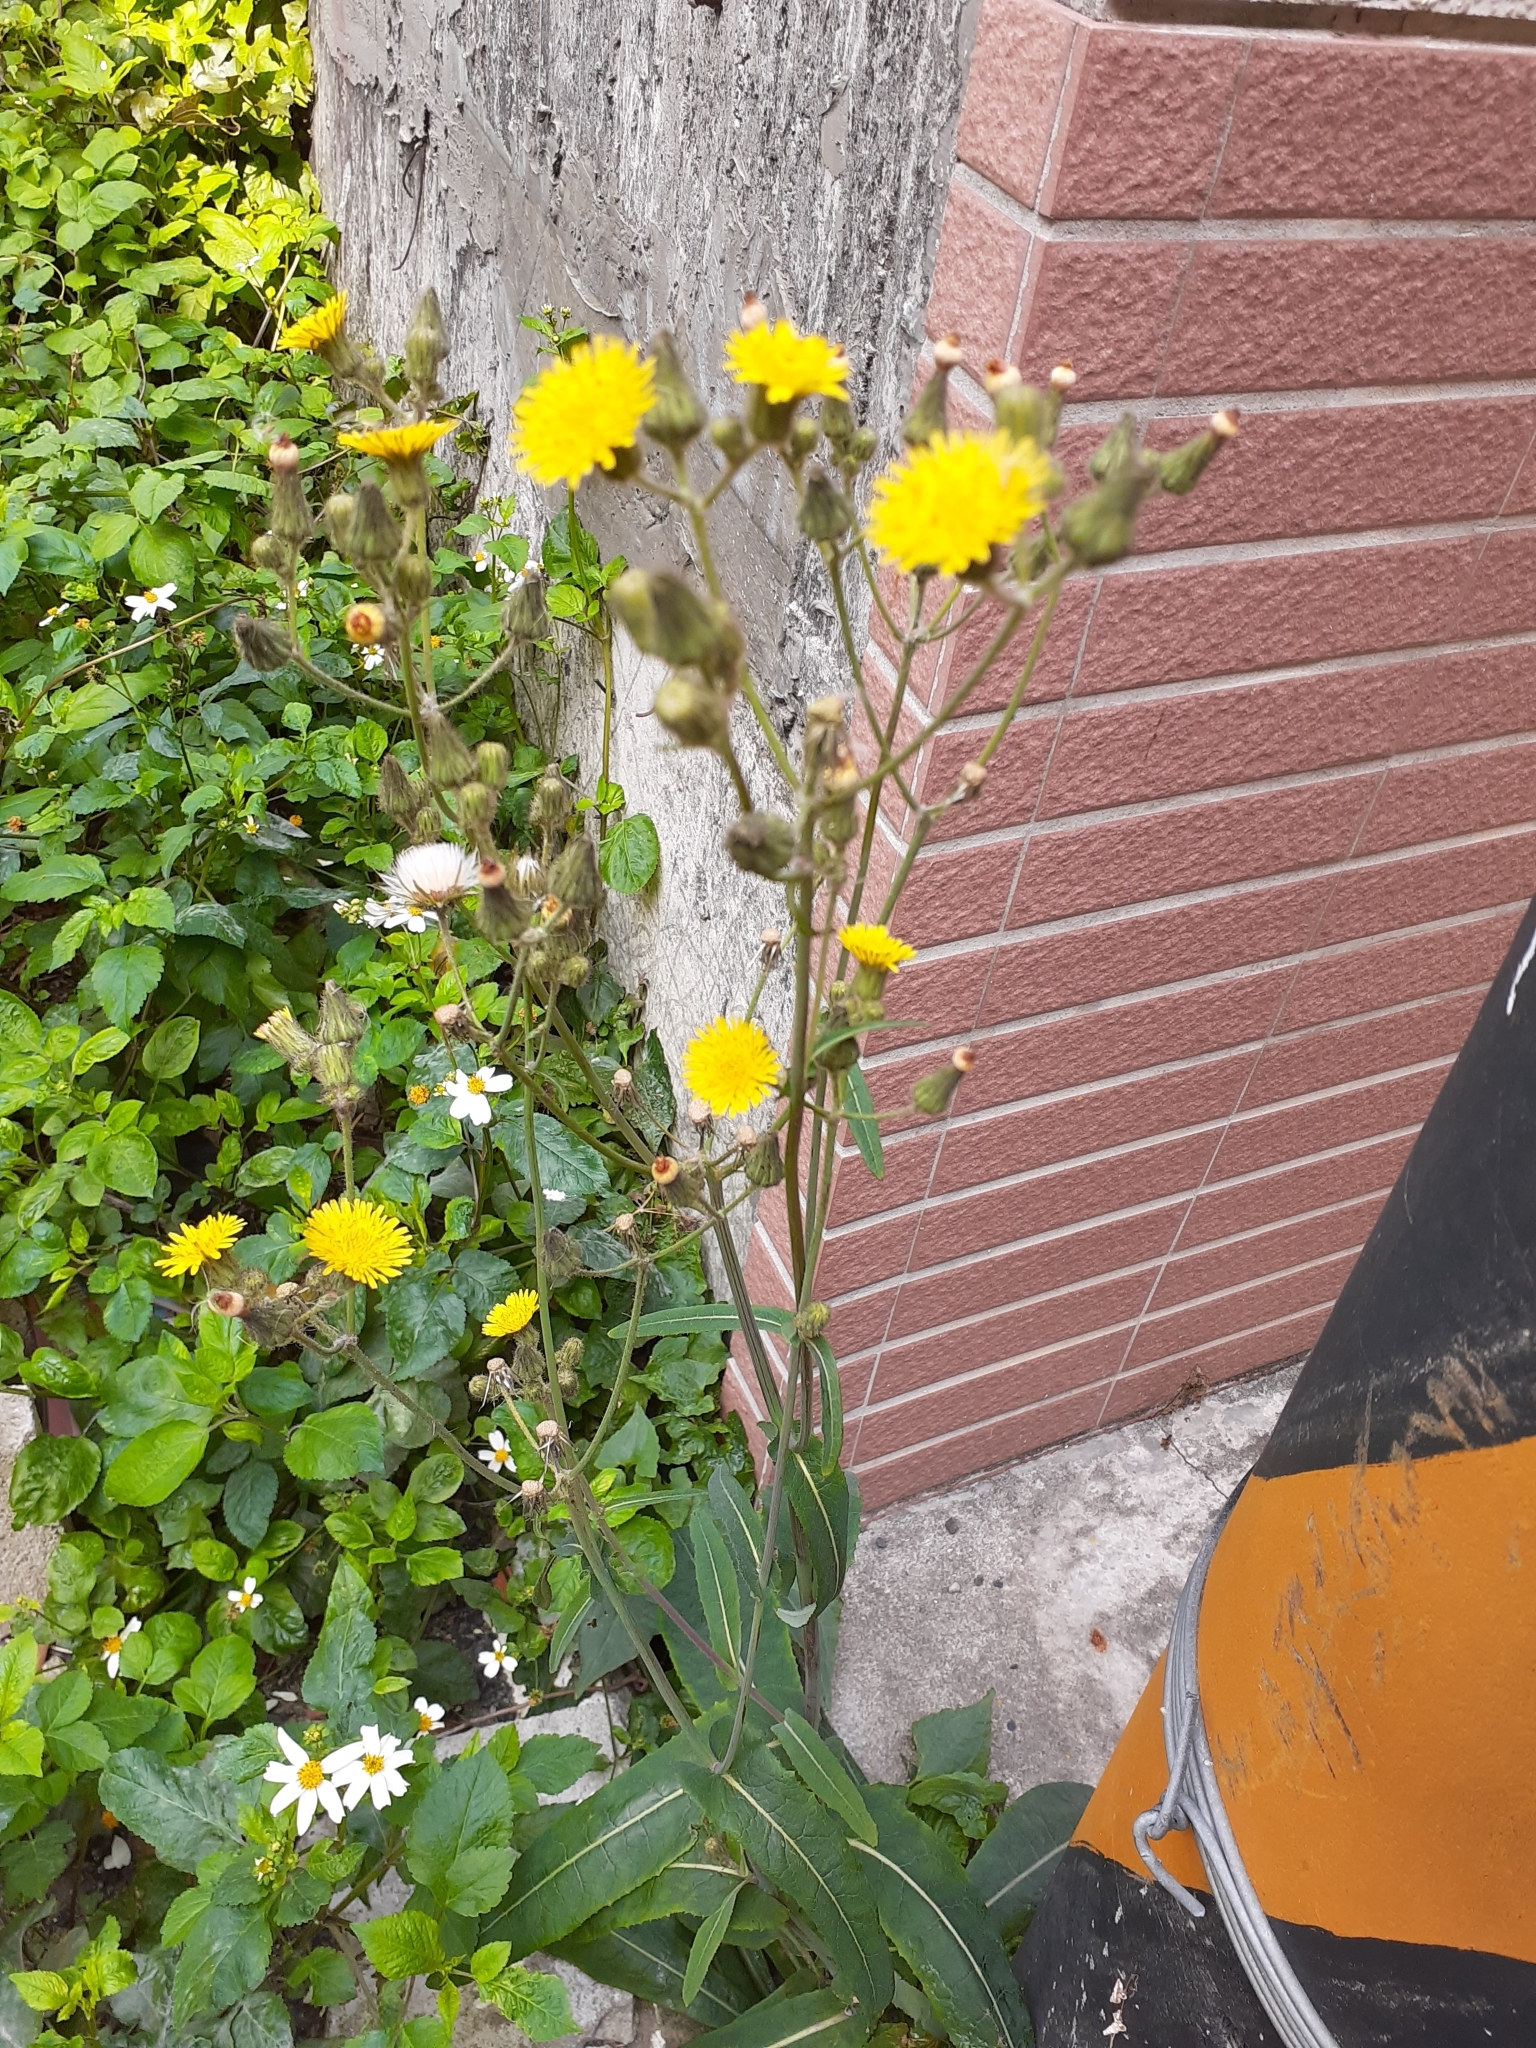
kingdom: Plantae
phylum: Tracheophyta
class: Magnoliopsida
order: Asterales
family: Asteraceae
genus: Sonchus
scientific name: Sonchus arvensis
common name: Perennial sow-thistle
